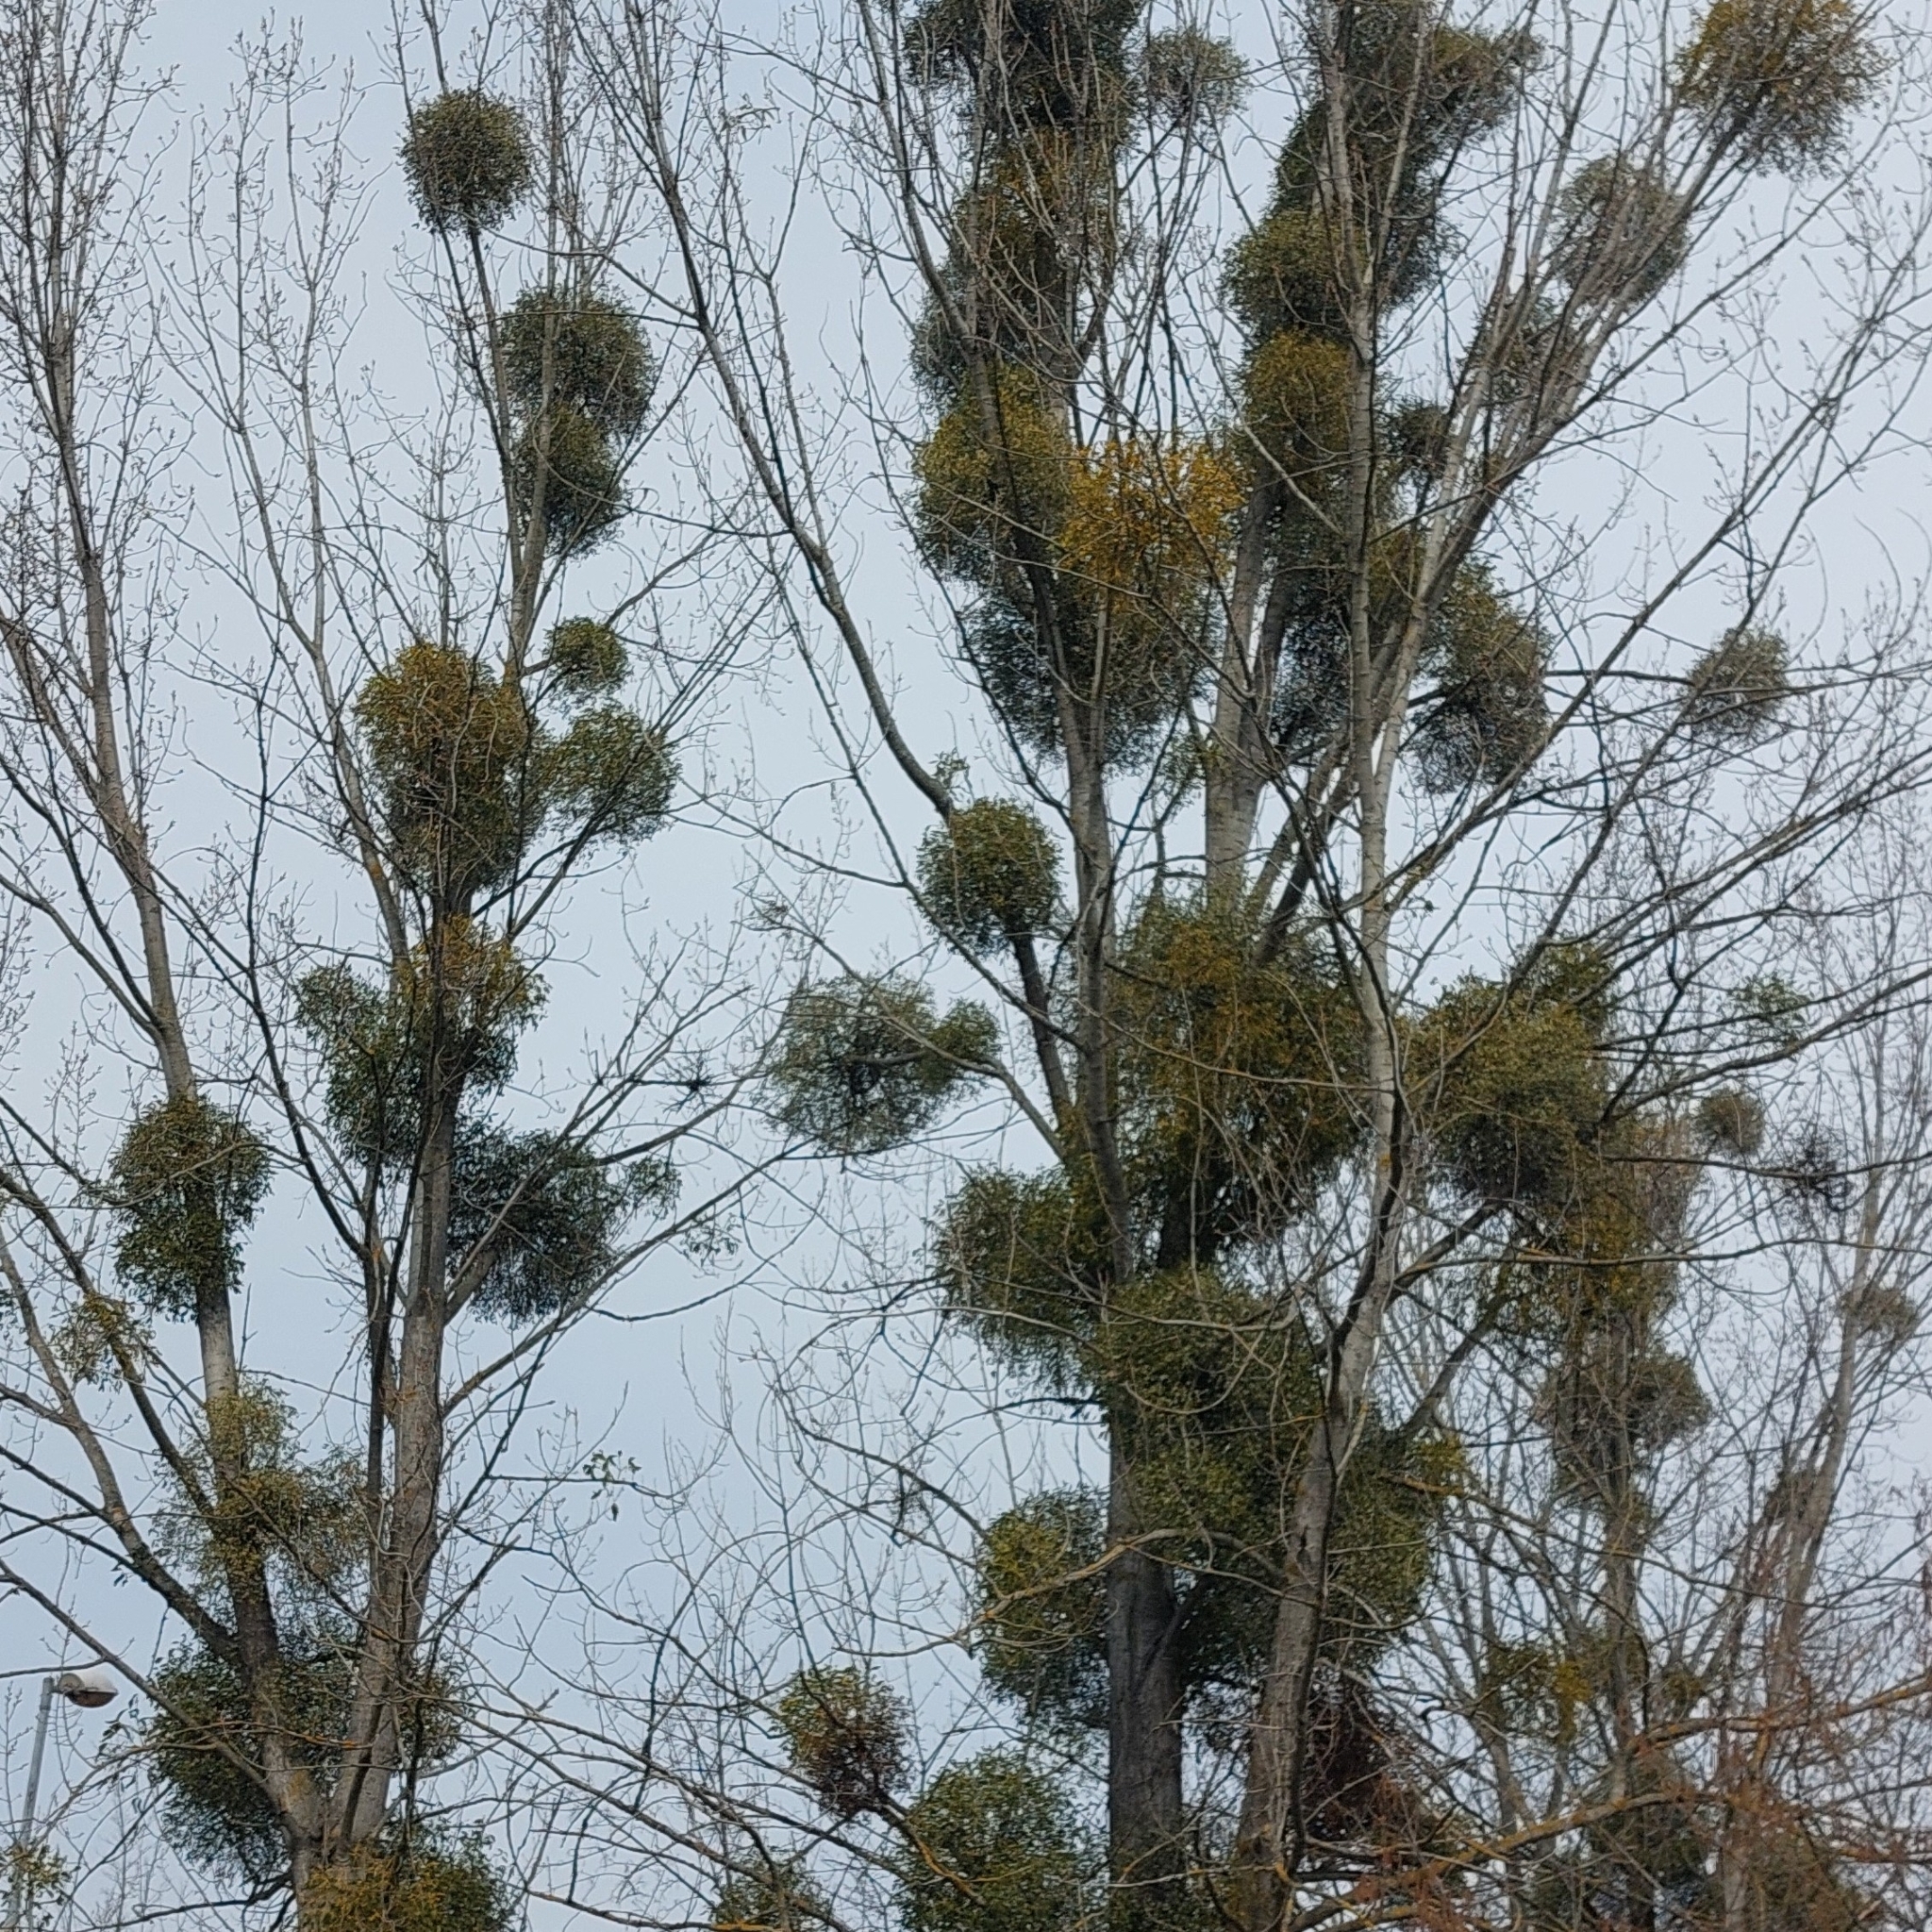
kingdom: Plantae
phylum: Tracheophyta
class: Magnoliopsida
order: Santalales
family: Viscaceae
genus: Viscum
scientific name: Viscum album
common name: Mistletoe
